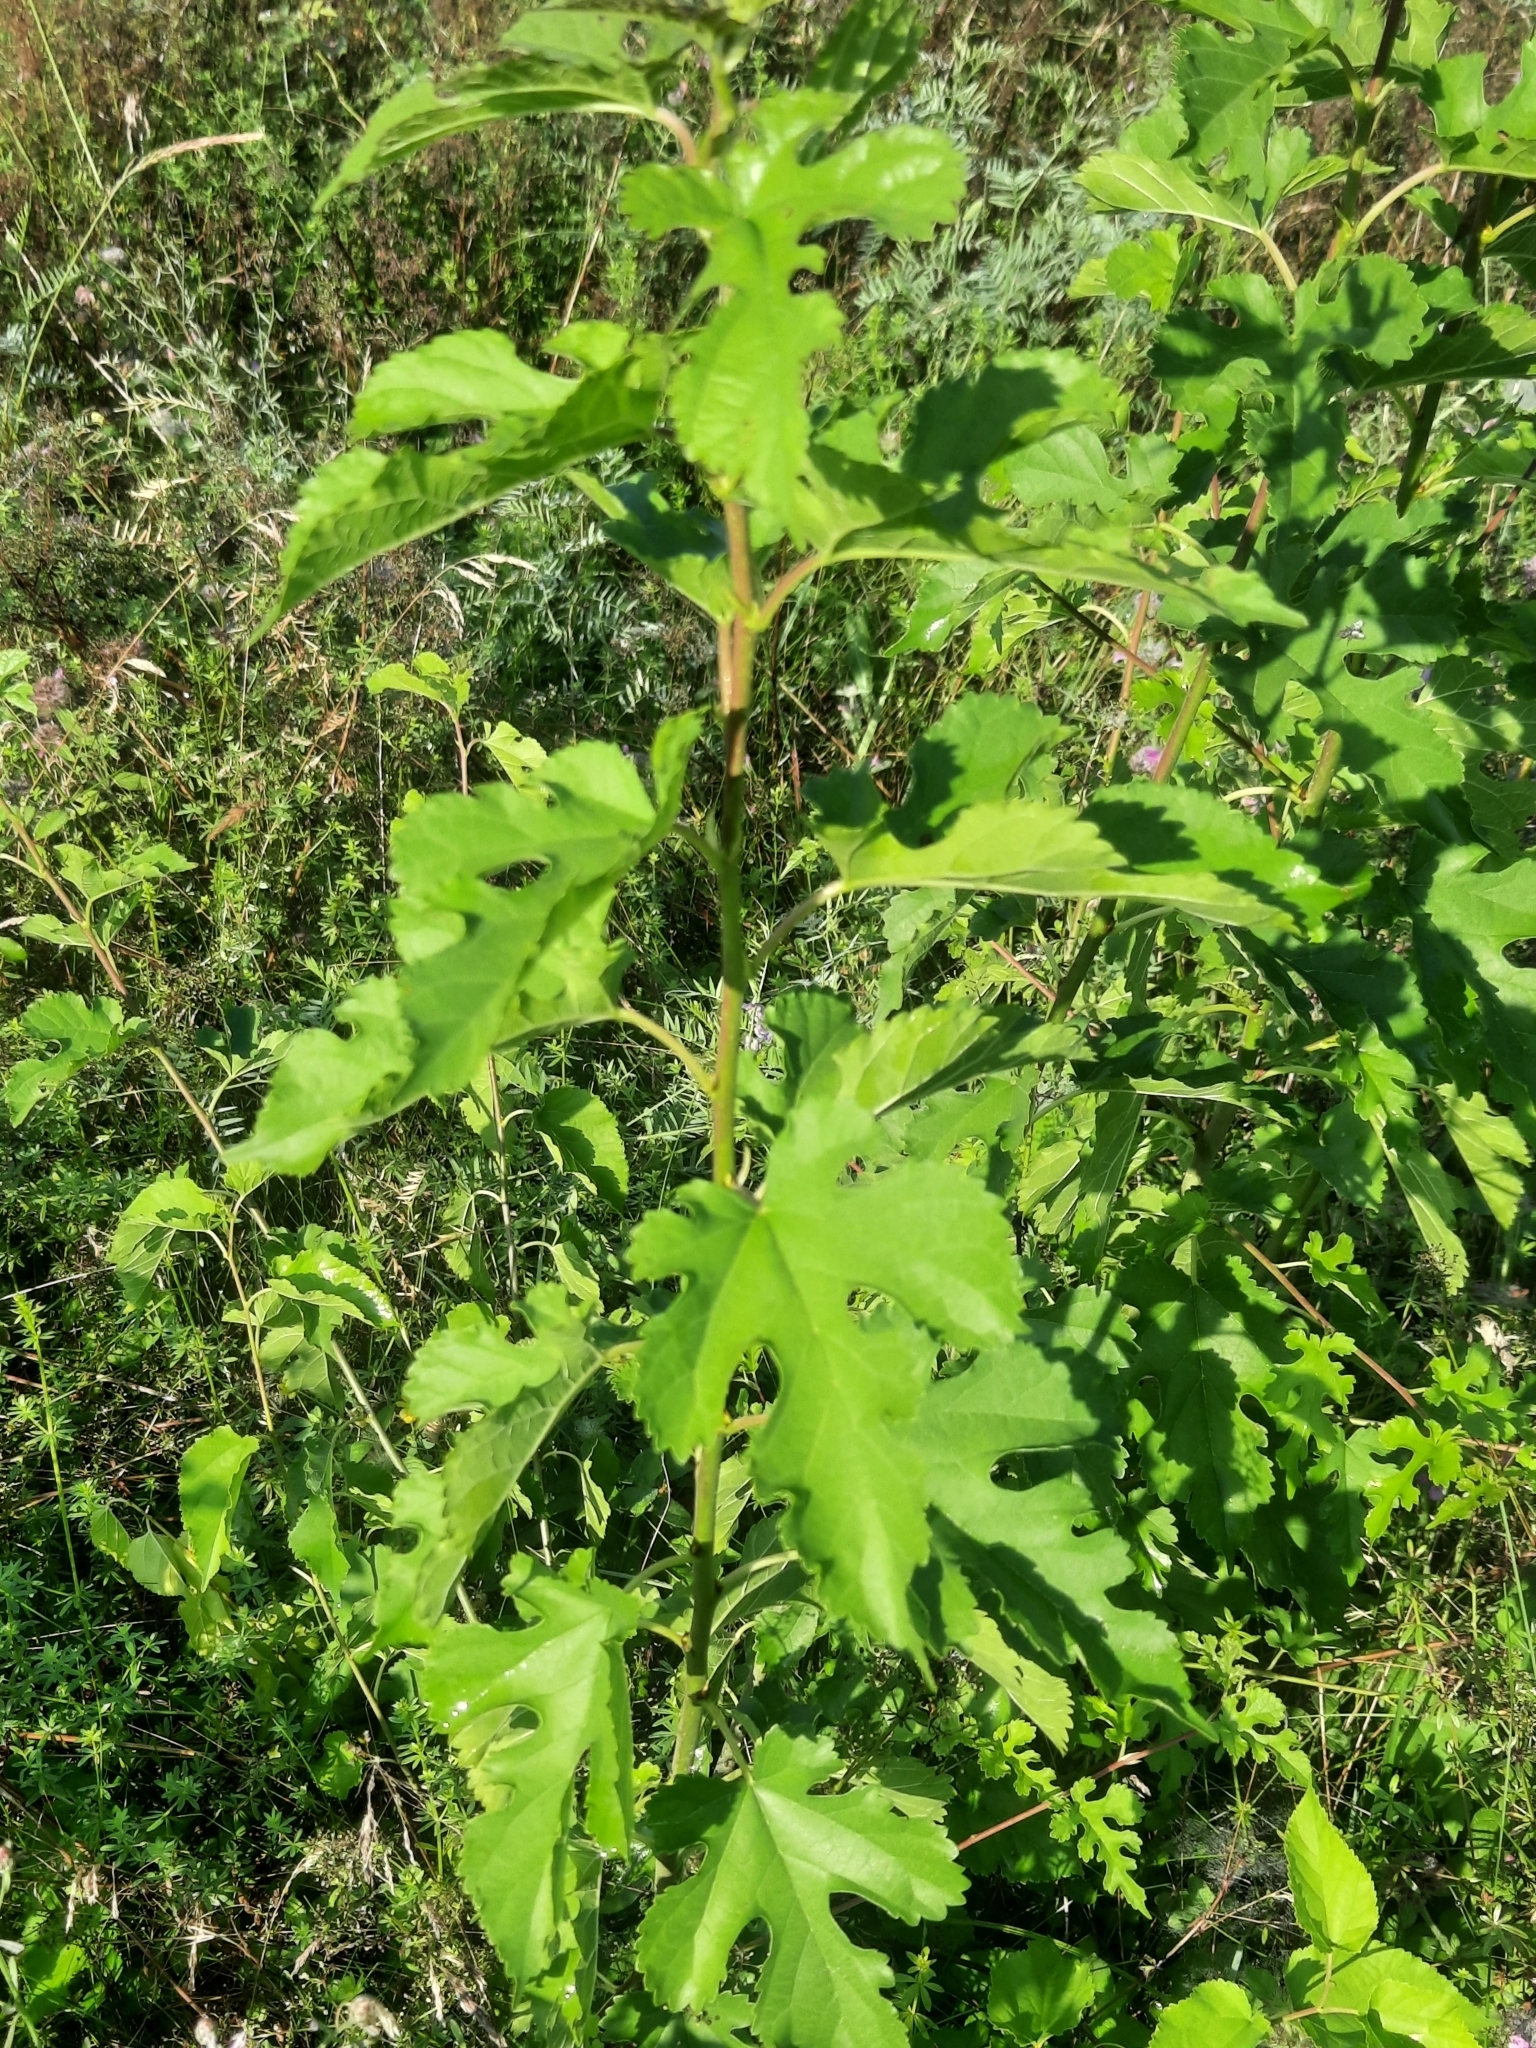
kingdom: Plantae
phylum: Tracheophyta
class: Magnoliopsida
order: Rosales
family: Moraceae
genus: Morus
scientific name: Morus alba
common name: White mulberry
